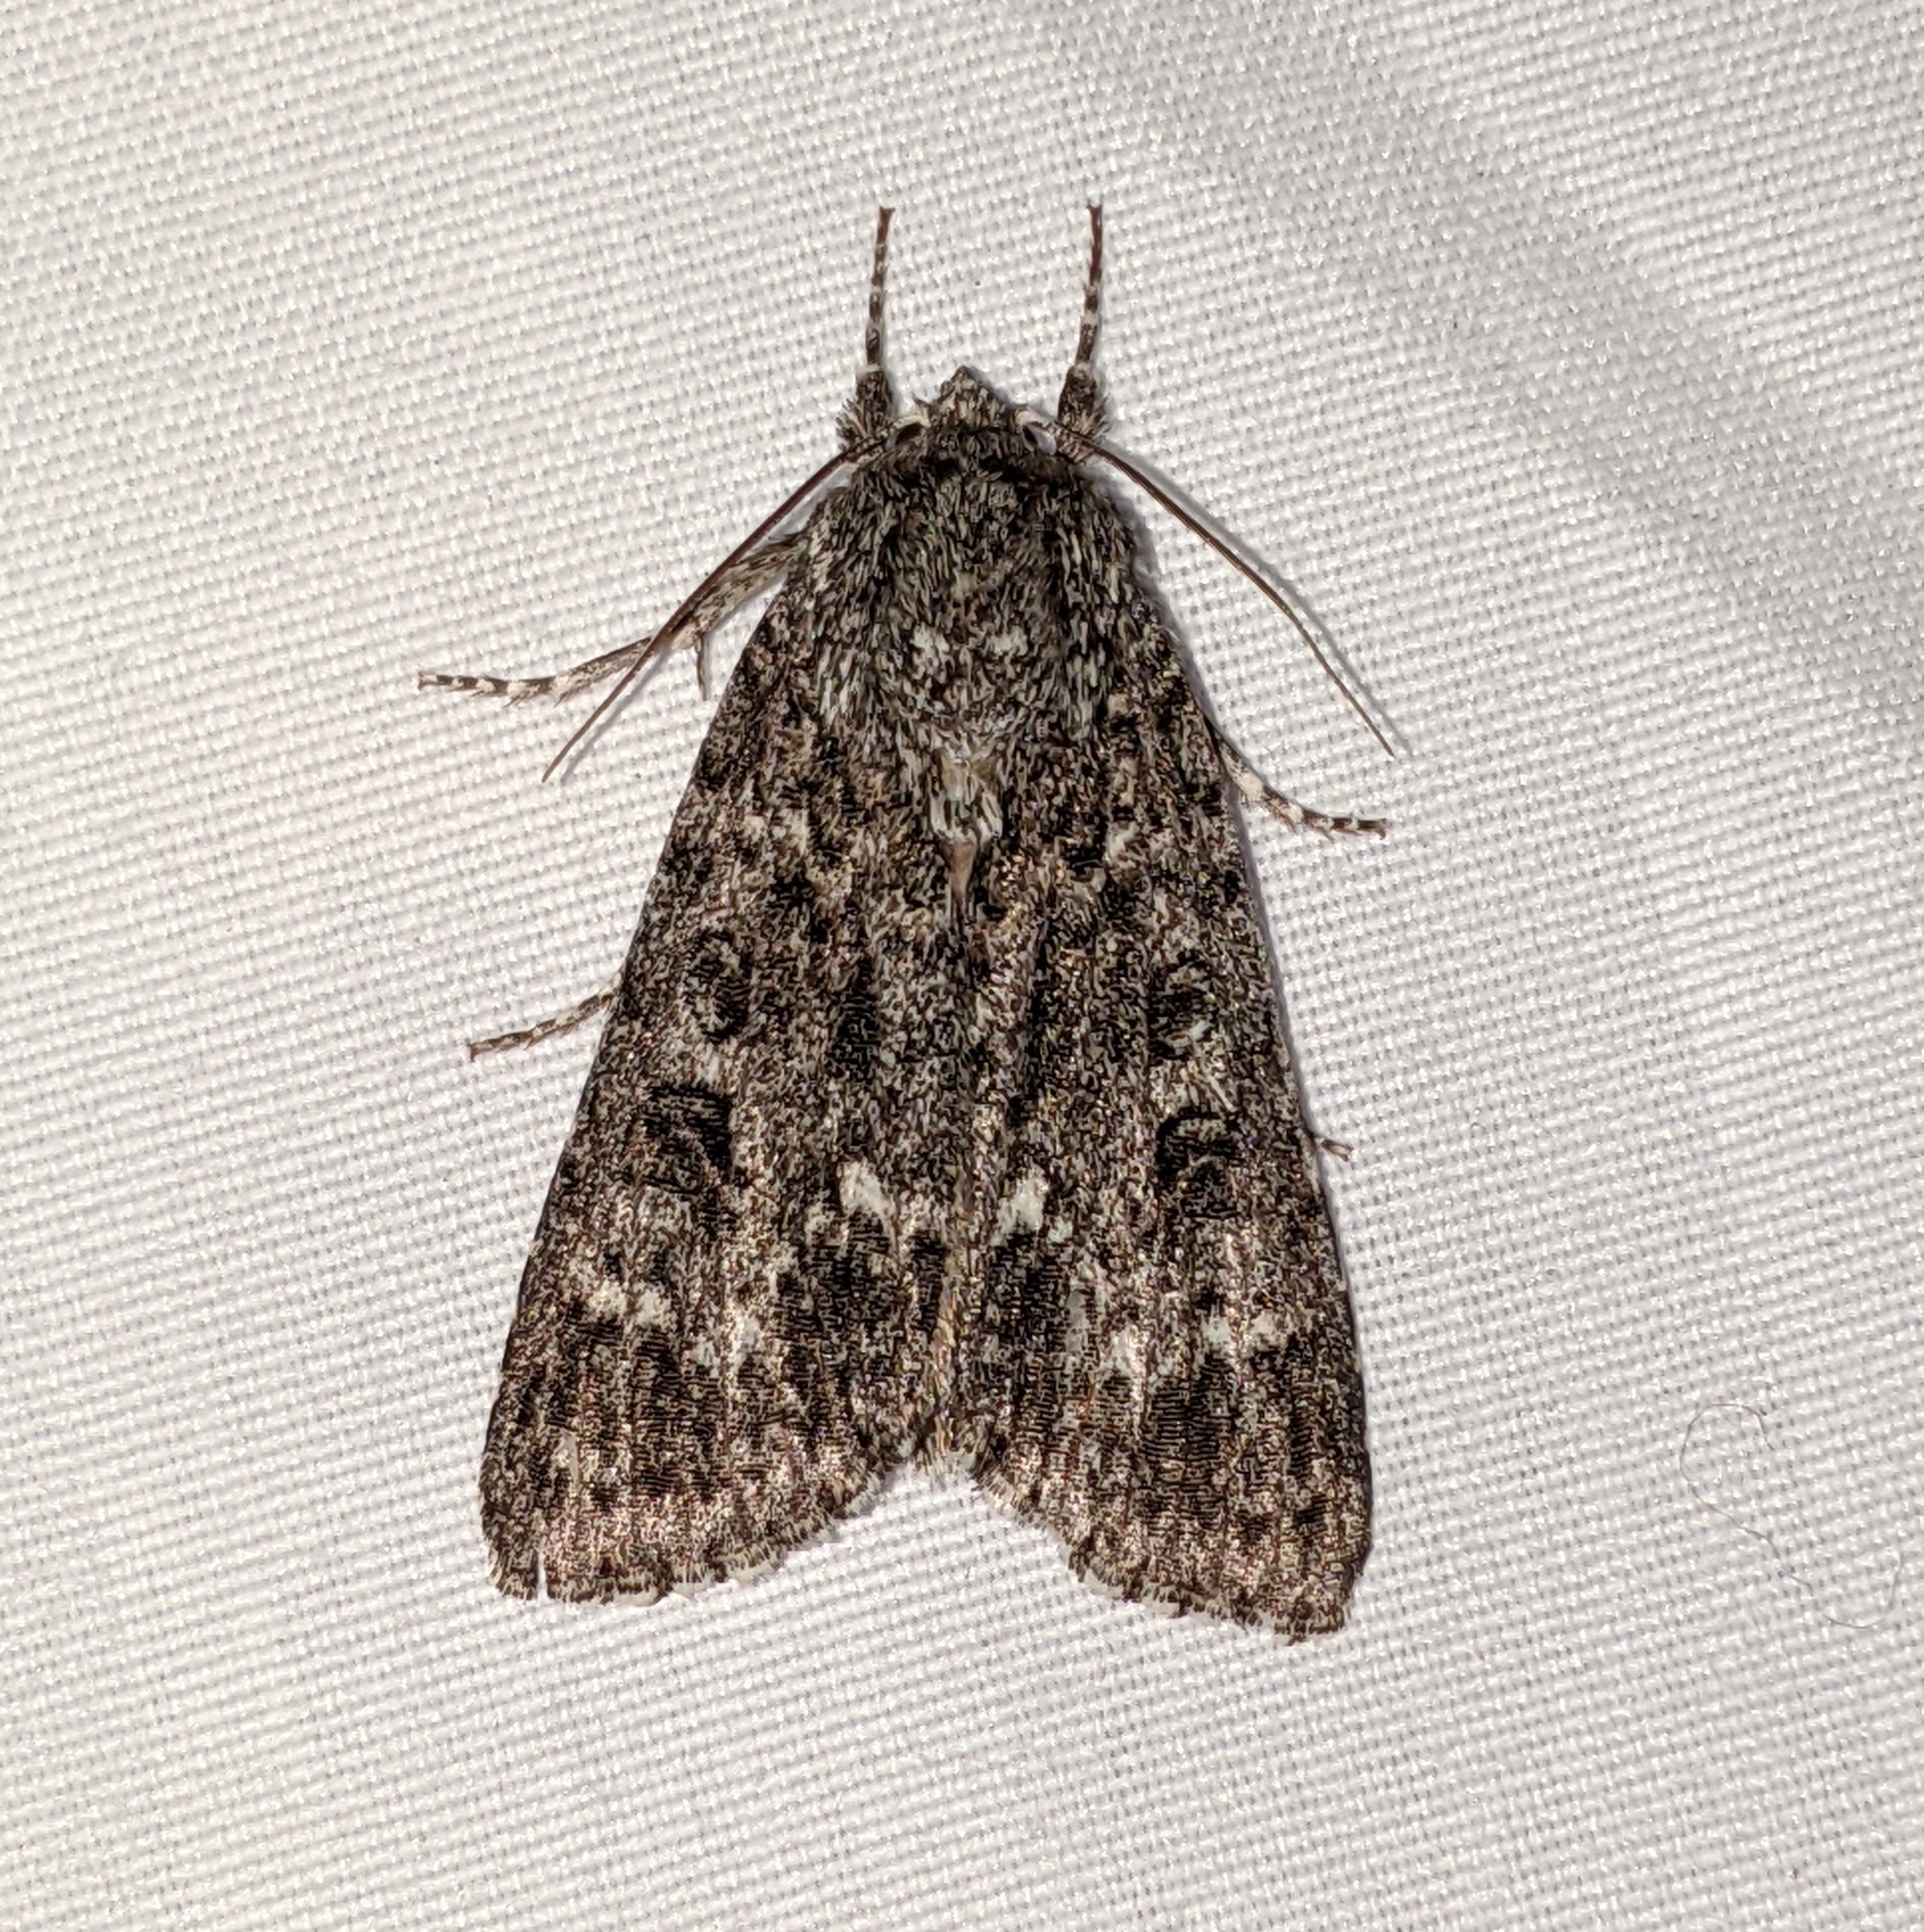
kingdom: Animalia
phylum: Arthropoda
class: Insecta
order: Lepidoptera
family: Noctuidae
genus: Acronicta
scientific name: Acronicta impleta
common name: Powdered dagger
